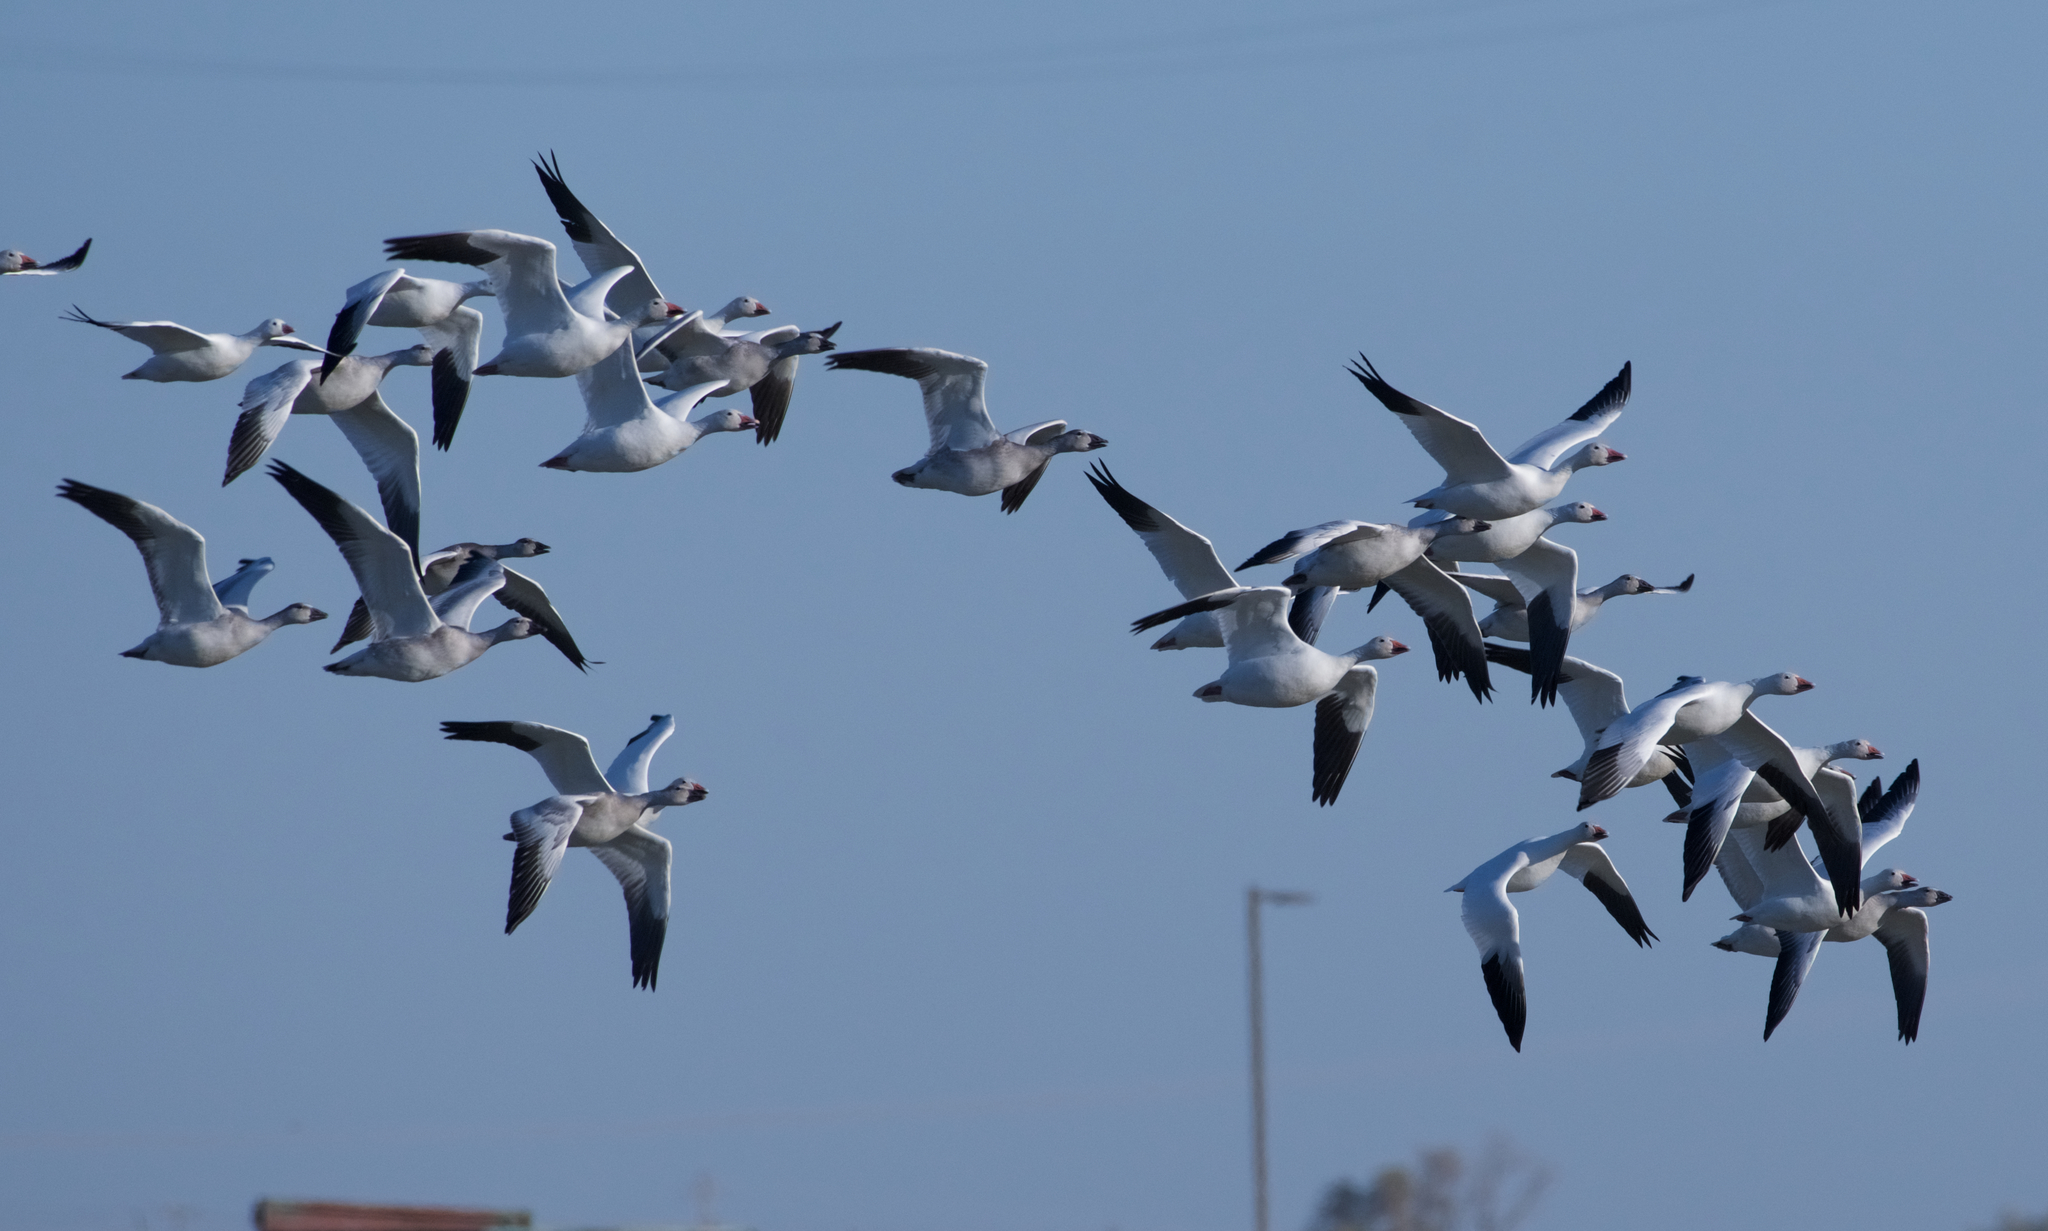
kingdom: Animalia
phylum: Chordata
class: Aves
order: Anseriformes
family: Anatidae
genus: Anser
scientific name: Anser caerulescens
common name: Snow goose
